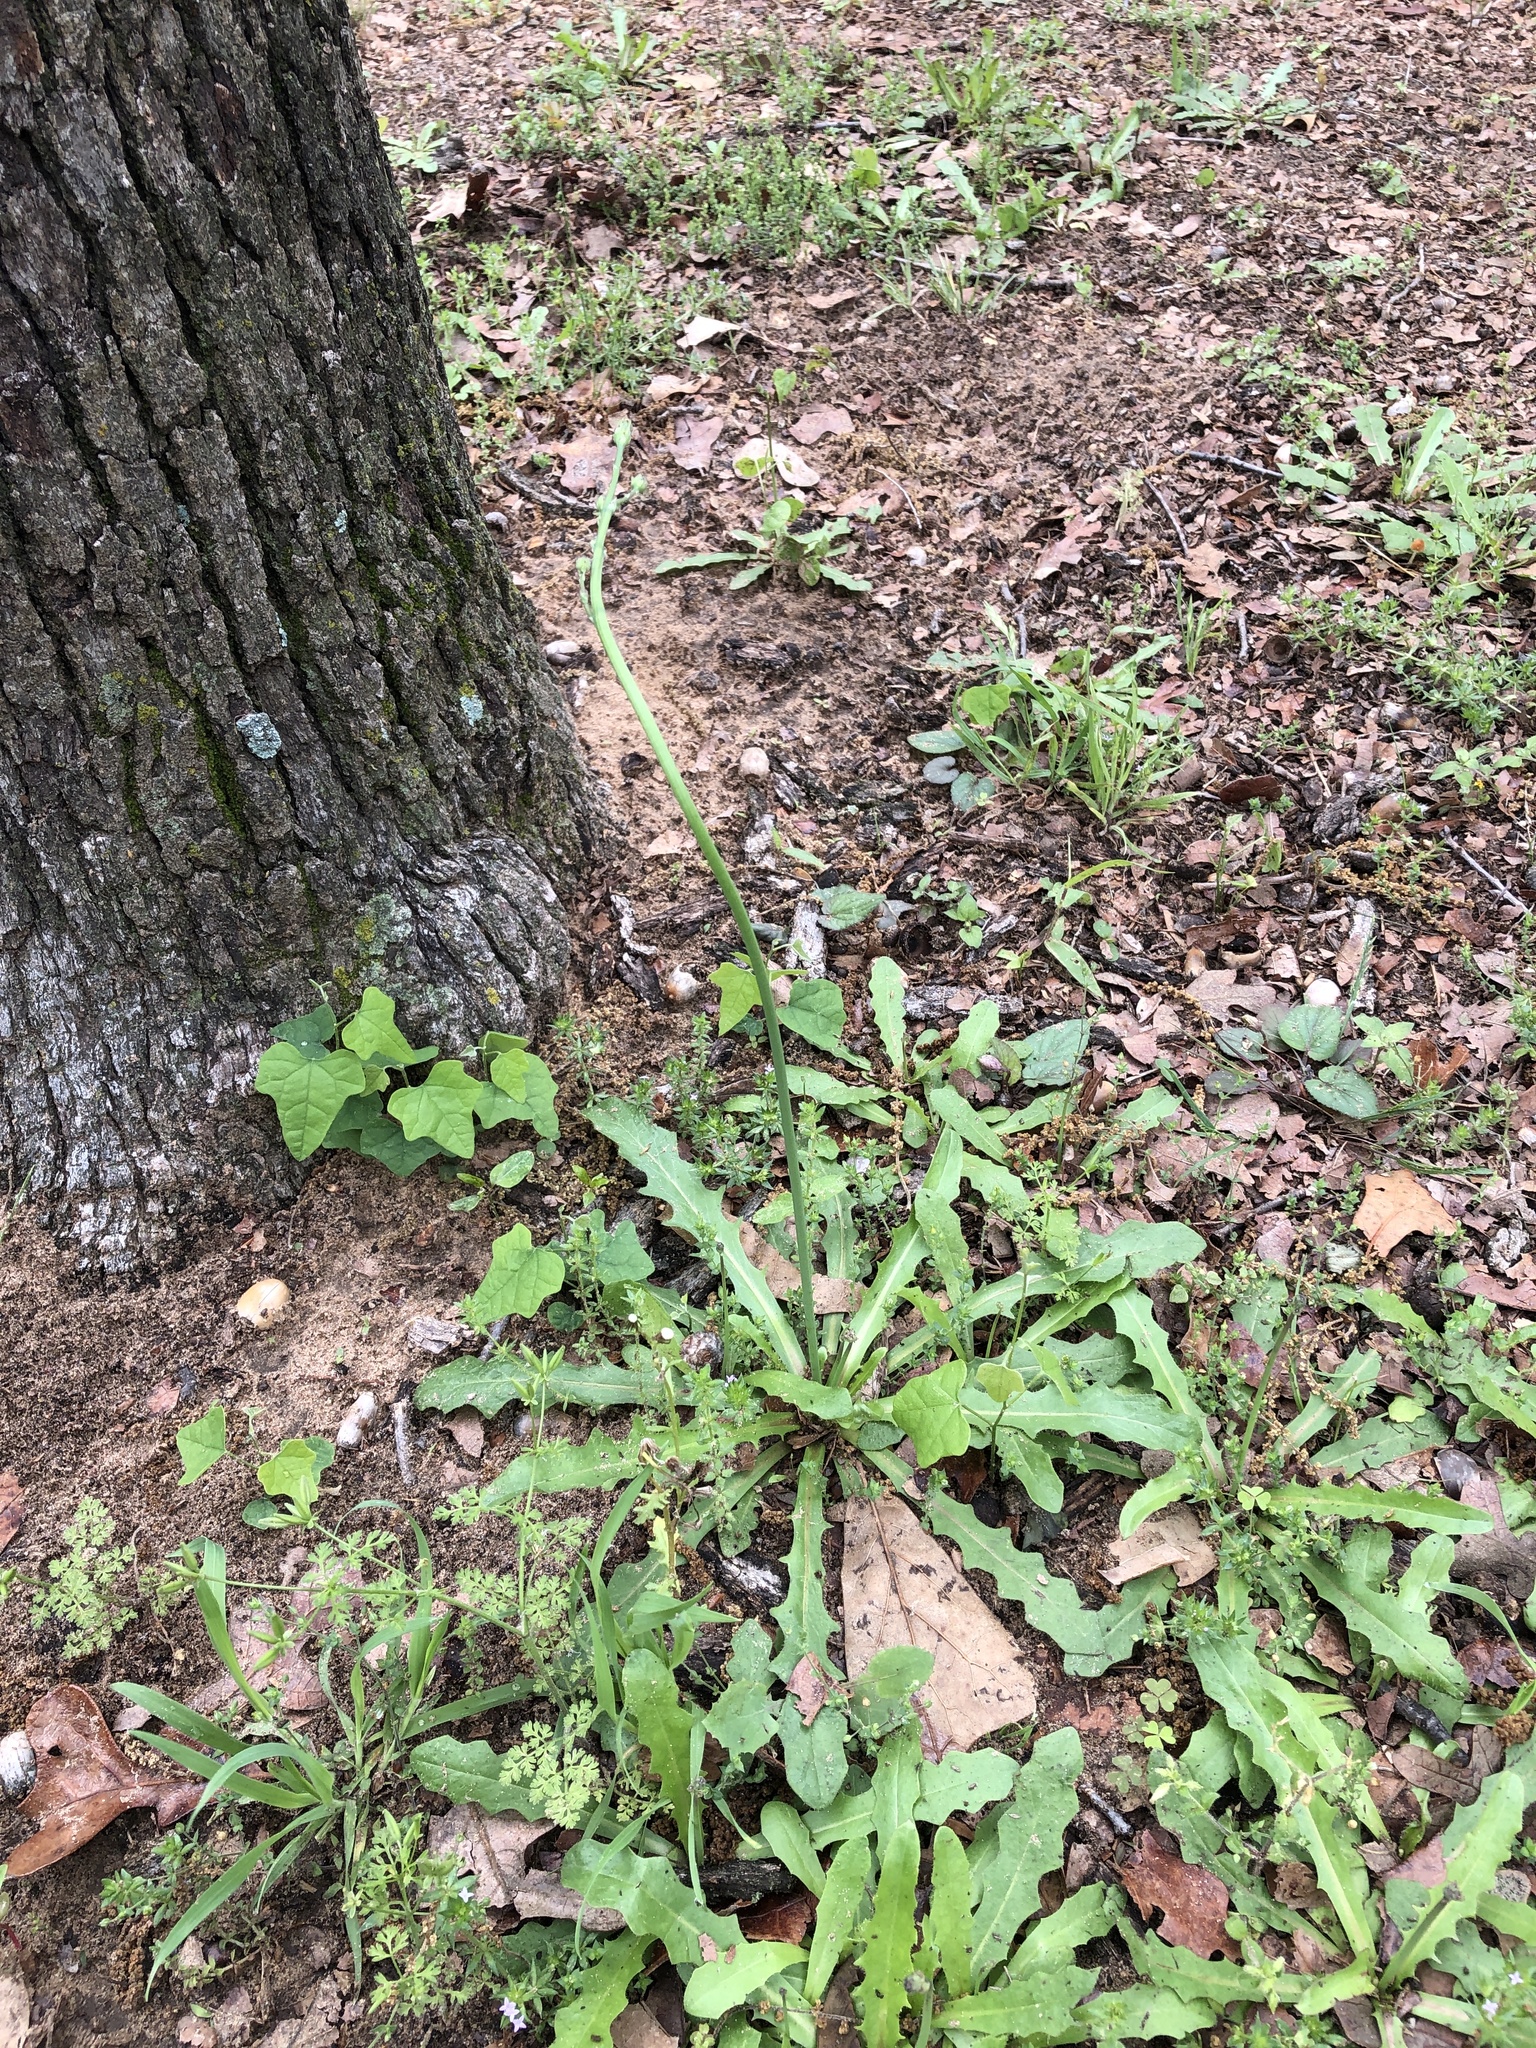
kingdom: Plantae
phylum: Tracheophyta
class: Magnoliopsida
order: Asterales
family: Asteraceae
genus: Hypochaeris
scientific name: Hypochaeris glabra
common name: Smooth catsear
